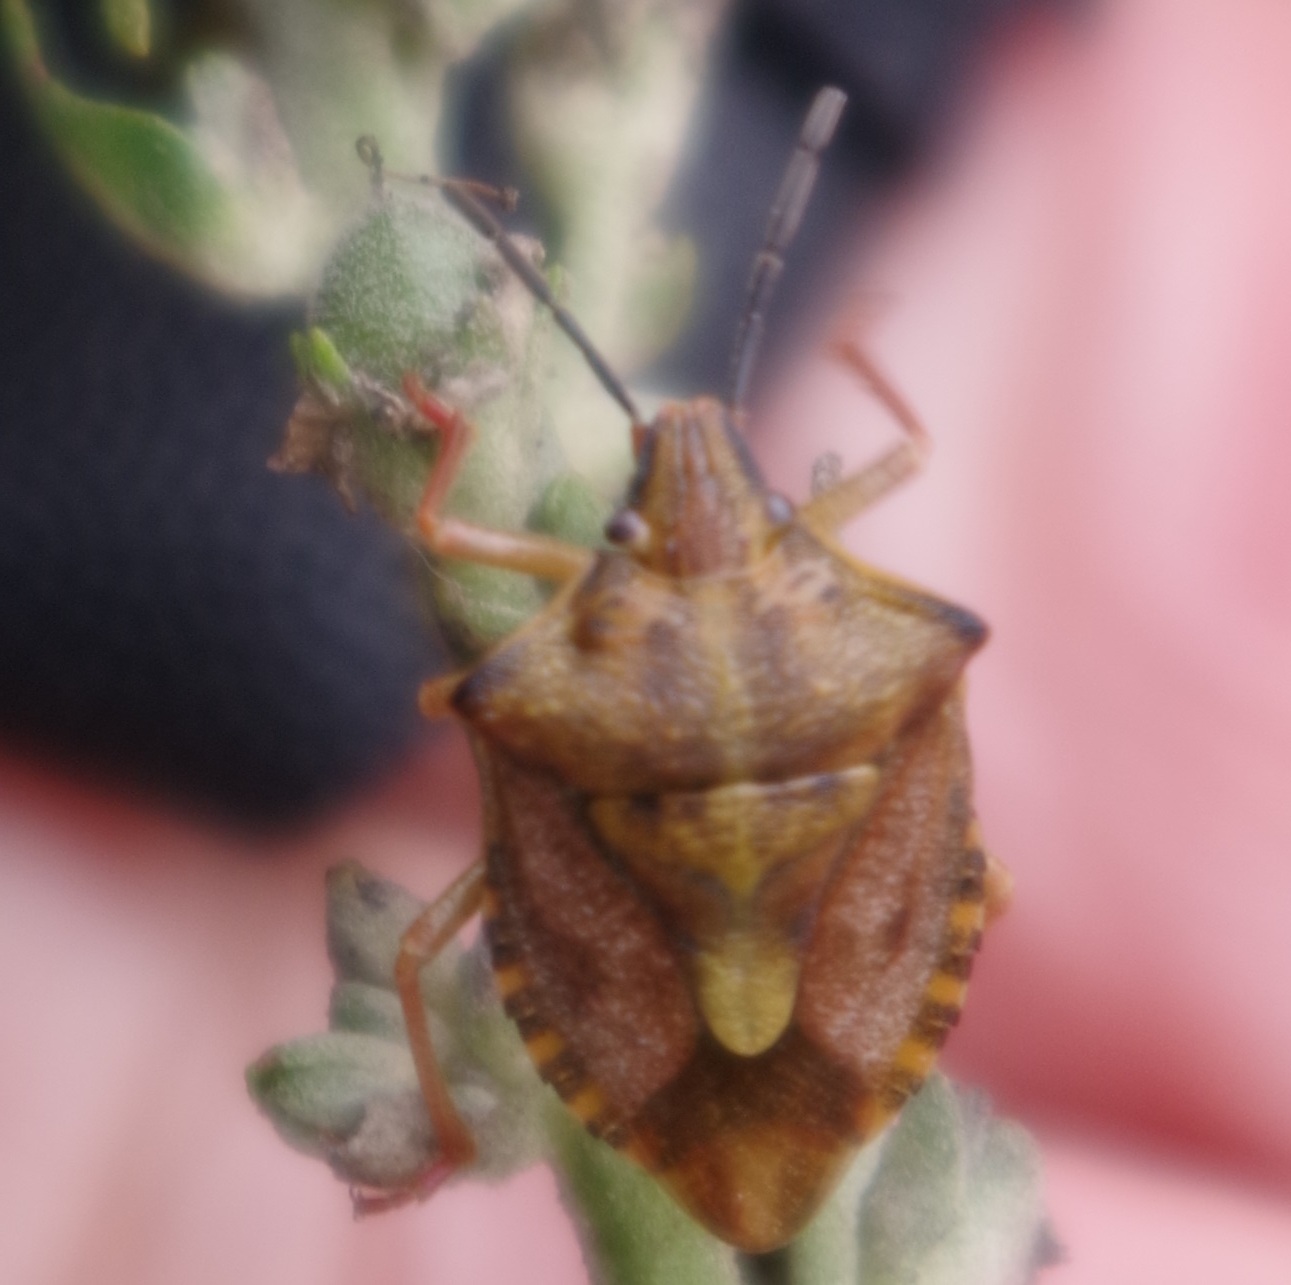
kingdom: Animalia
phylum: Arthropoda
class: Insecta
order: Hemiptera
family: Pentatomidae
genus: Carpocoris
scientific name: Carpocoris purpureipennis
